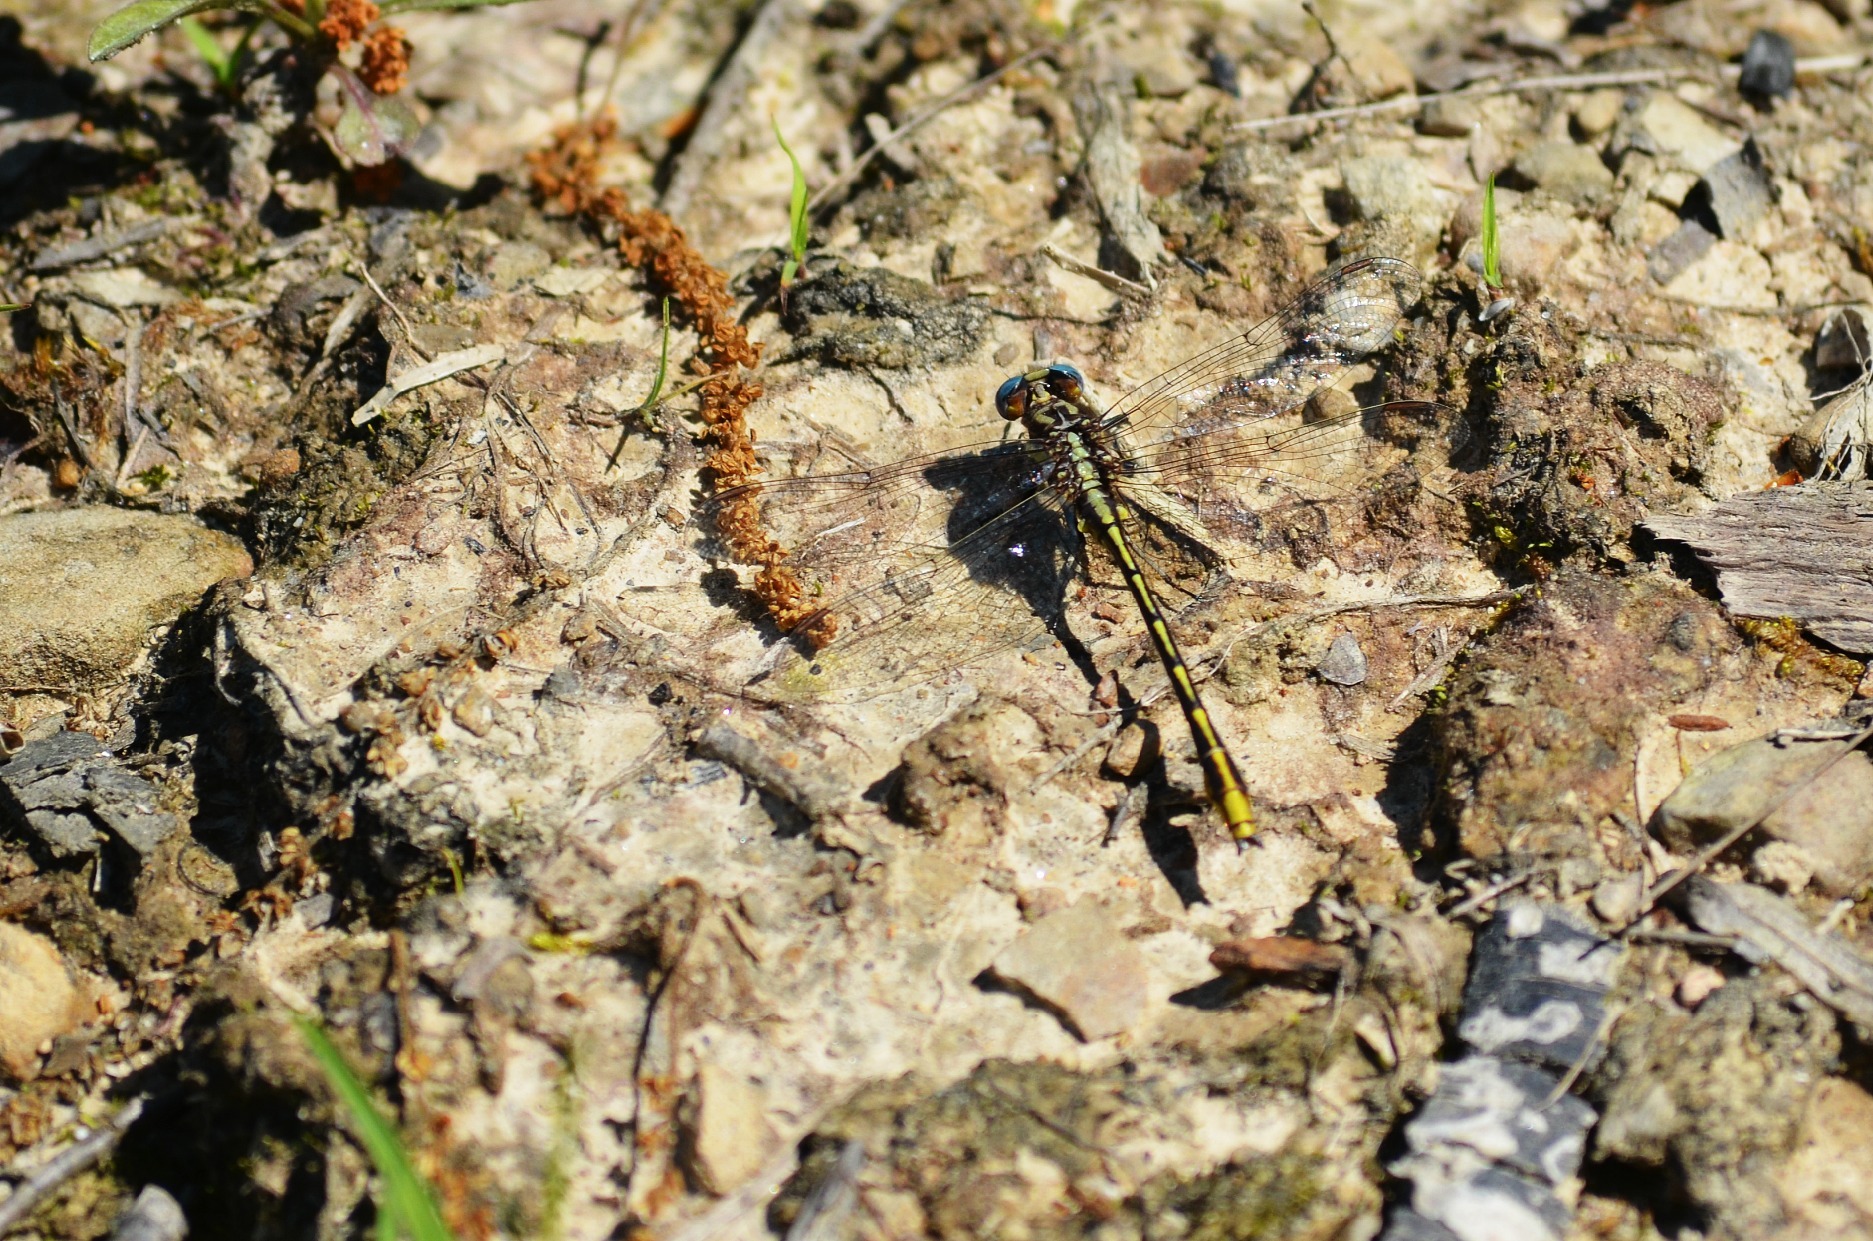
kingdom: Animalia
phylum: Arthropoda
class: Insecta
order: Odonata
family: Gomphidae
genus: Phanogomphus
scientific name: Phanogomphus exilis
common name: Lancet clubtail
